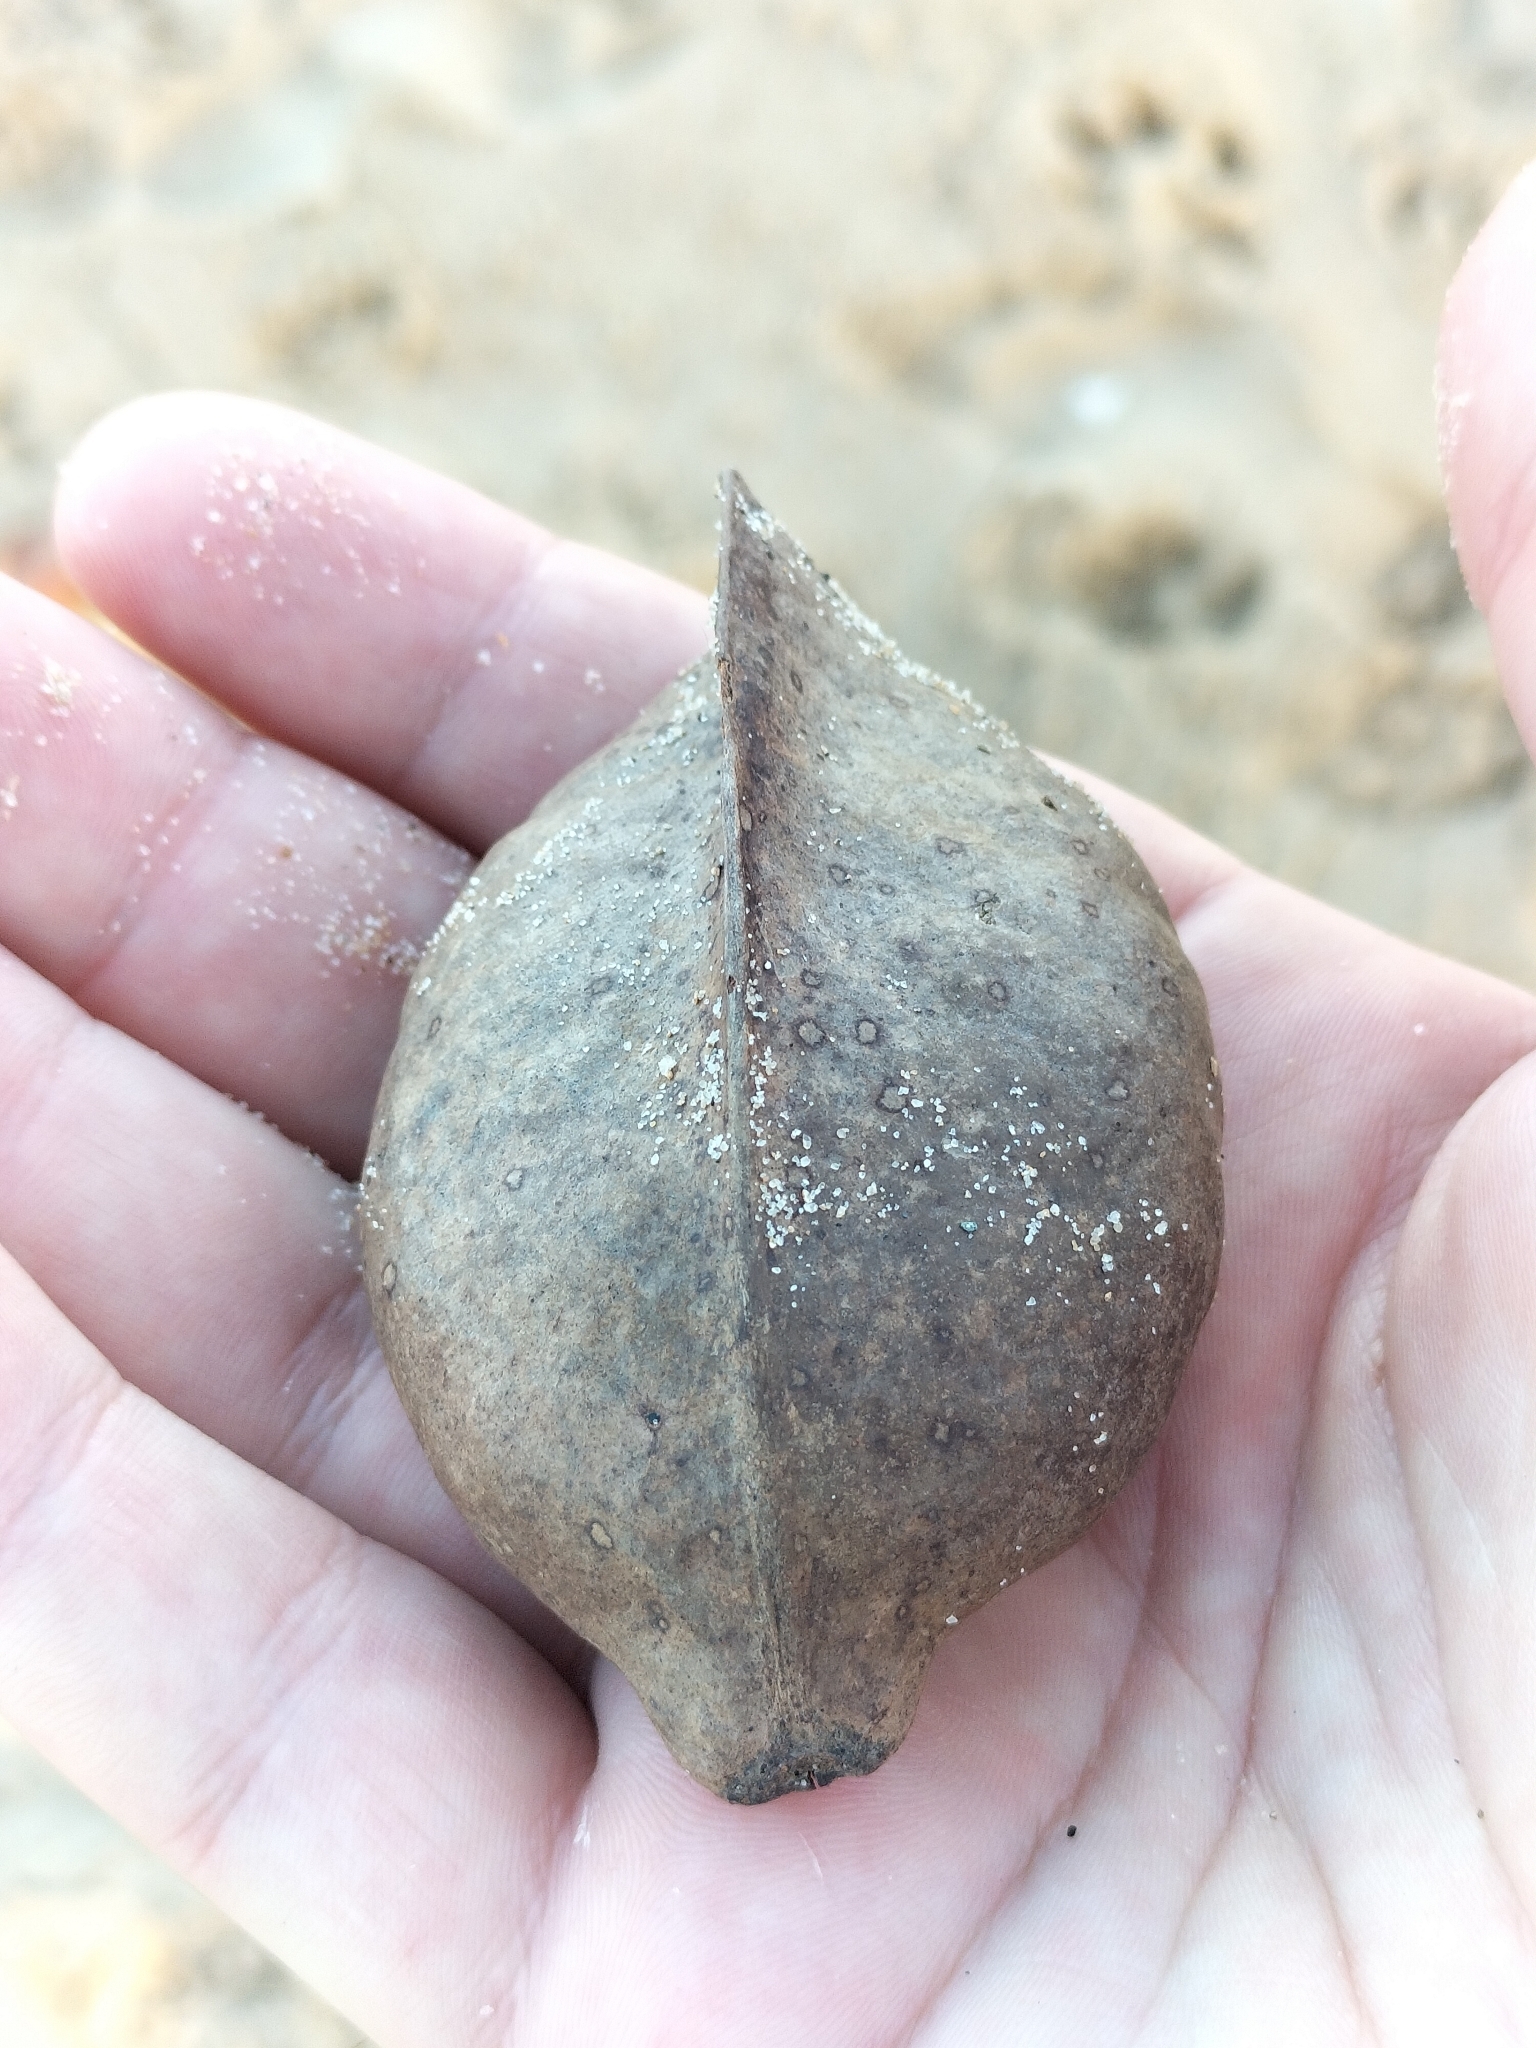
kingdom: Plantae
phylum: Tracheophyta
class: Magnoliopsida
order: Malvales
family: Malvaceae
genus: Heritiera
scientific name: Heritiera littoralis
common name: Looking-glass mangrove
